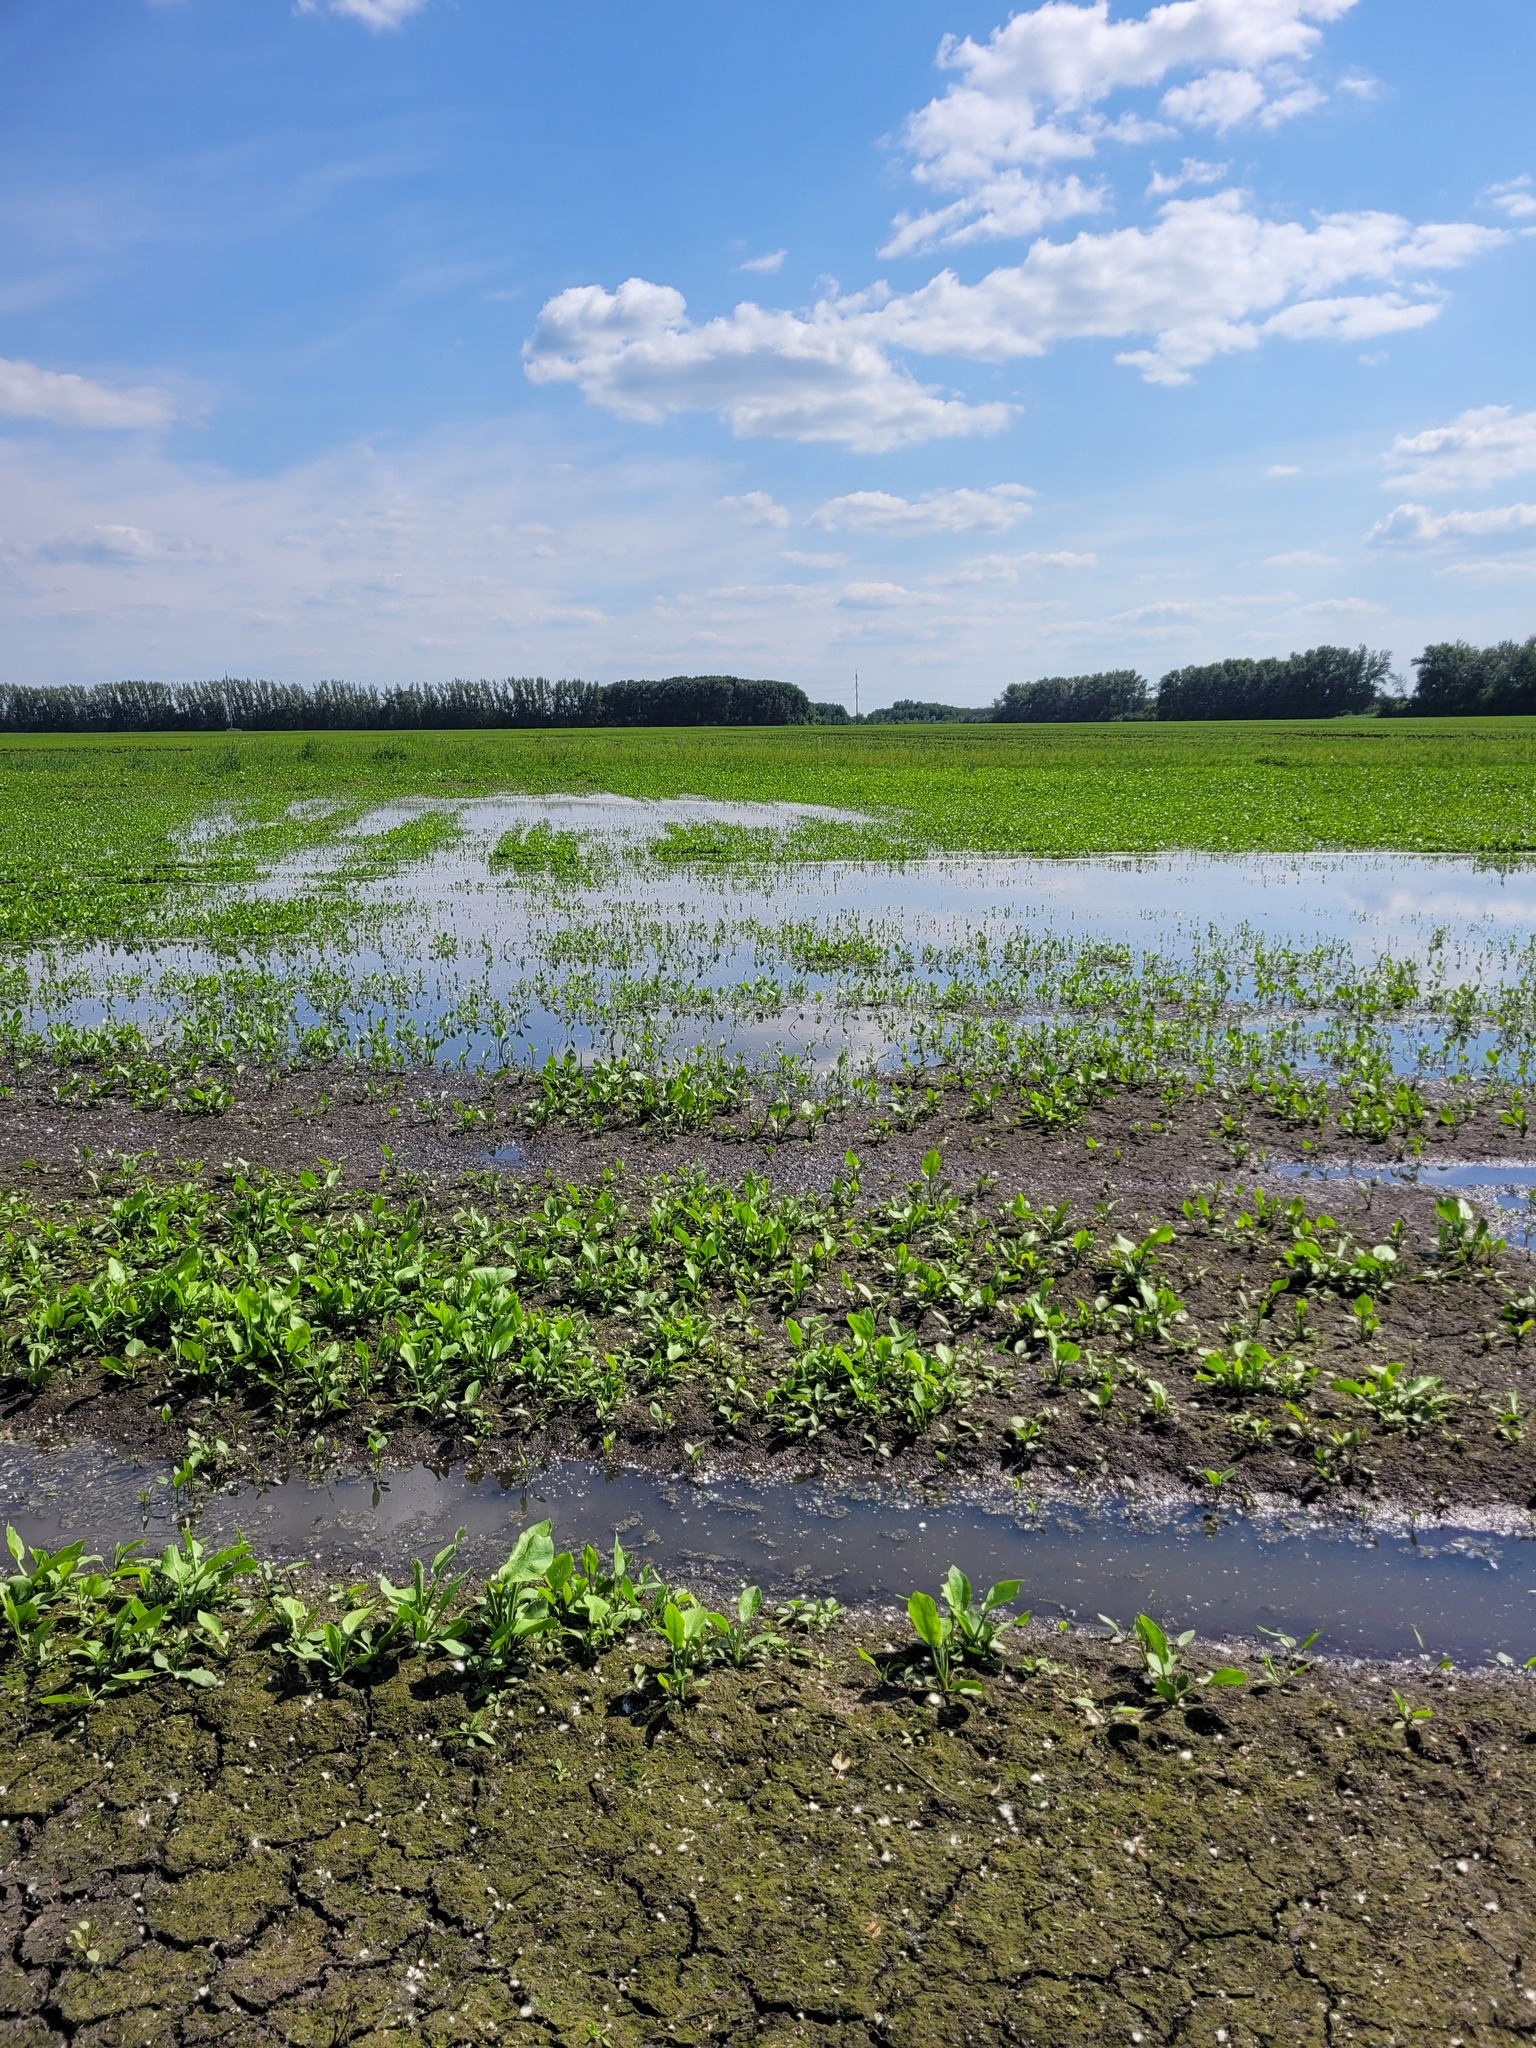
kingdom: Plantae
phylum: Tracheophyta
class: Liliopsida
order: Alismatales
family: Alismataceae
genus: Alisma
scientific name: Alisma plantago-aquatica
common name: Water-plantain
